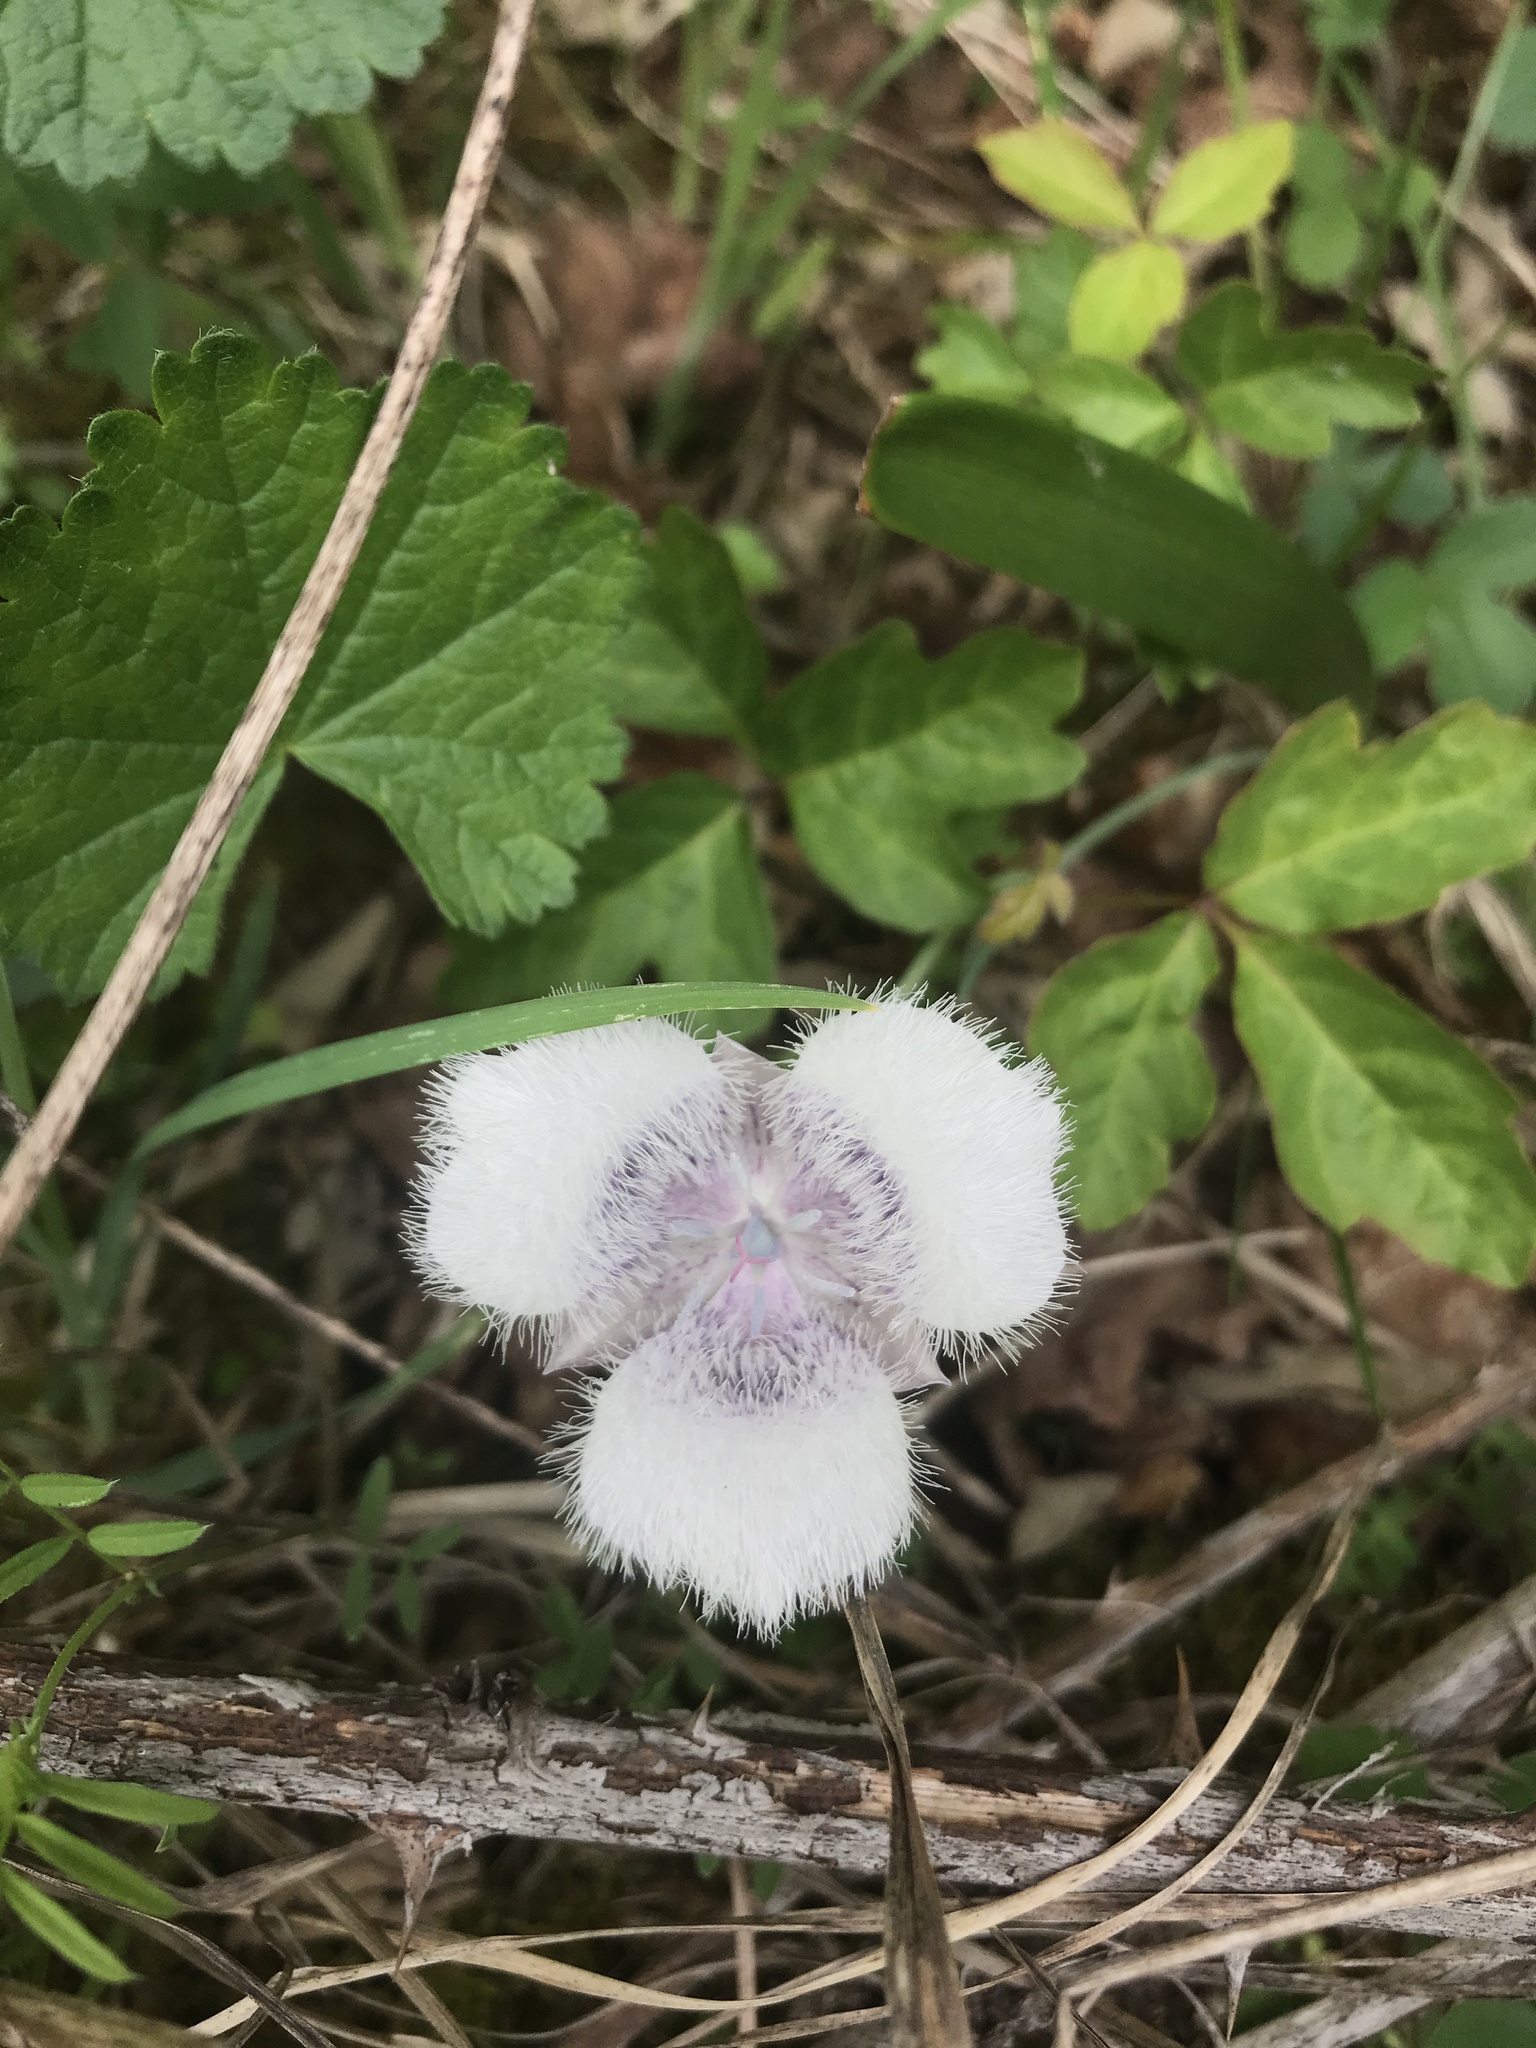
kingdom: Plantae
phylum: Tracheophyta
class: Liliopsida
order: Liliales
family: Liliaceae
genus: Calochortus
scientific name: Calochortus tolmiei
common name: Pussy-ears
